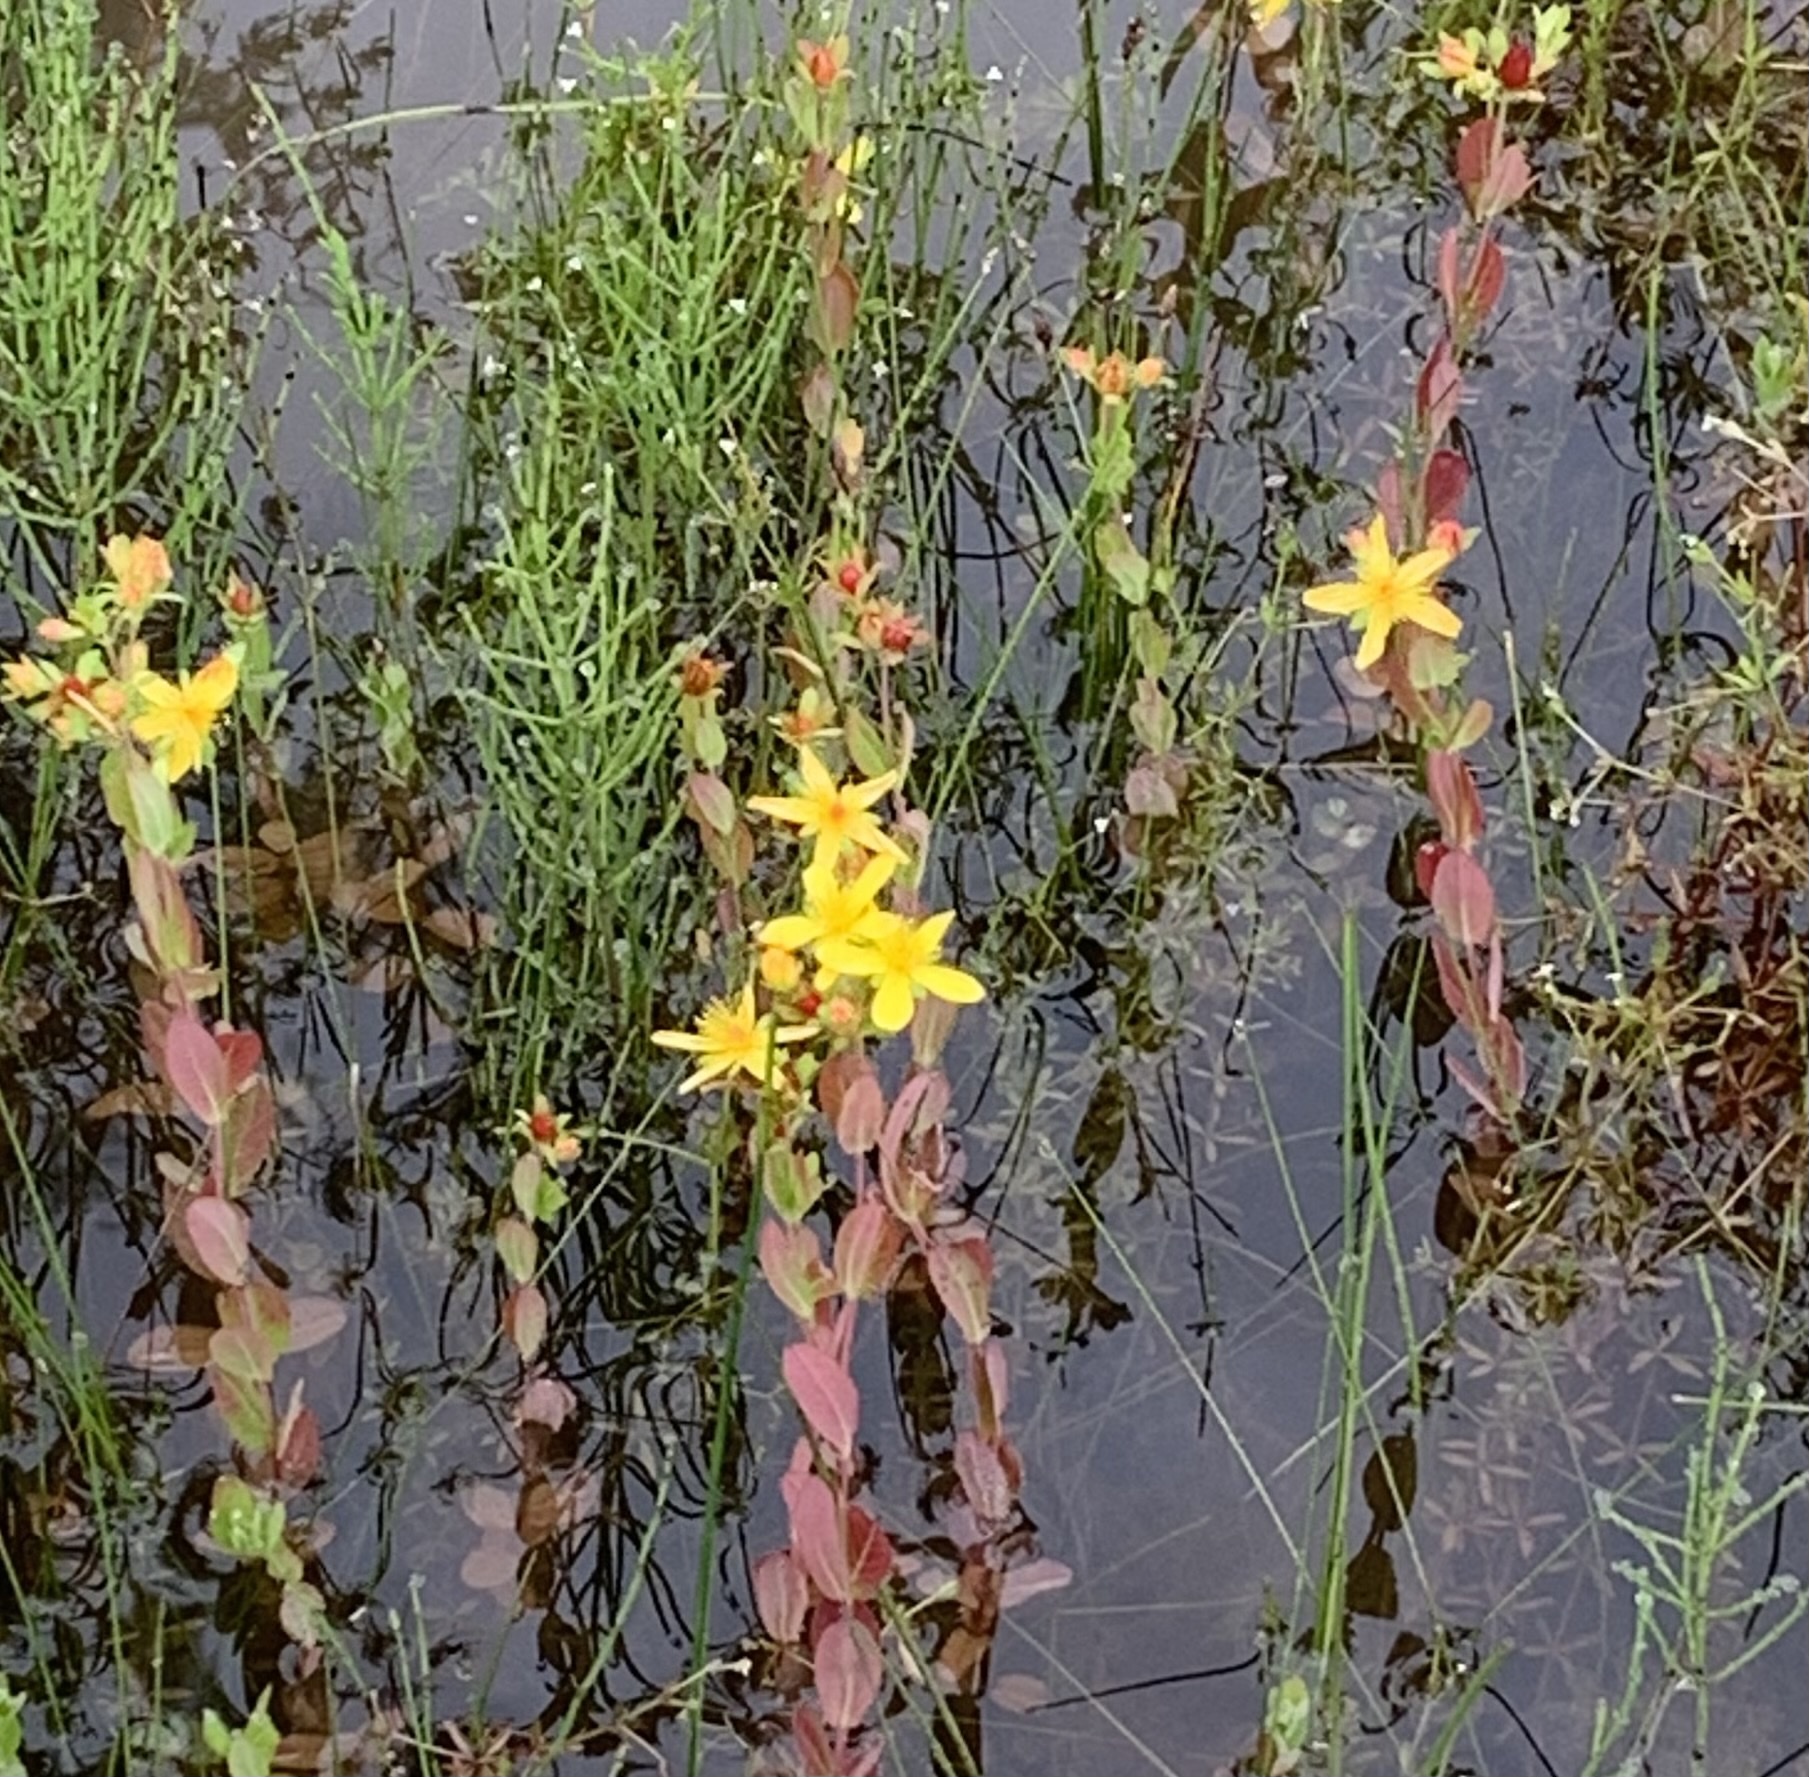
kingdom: Plantae
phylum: Tracheophyta
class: Magnoliopsida
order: Malpighiales
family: Hypericaceae
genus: Hypericum
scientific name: Hypericum ellipticum
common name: Elliptic st. john's-wort
